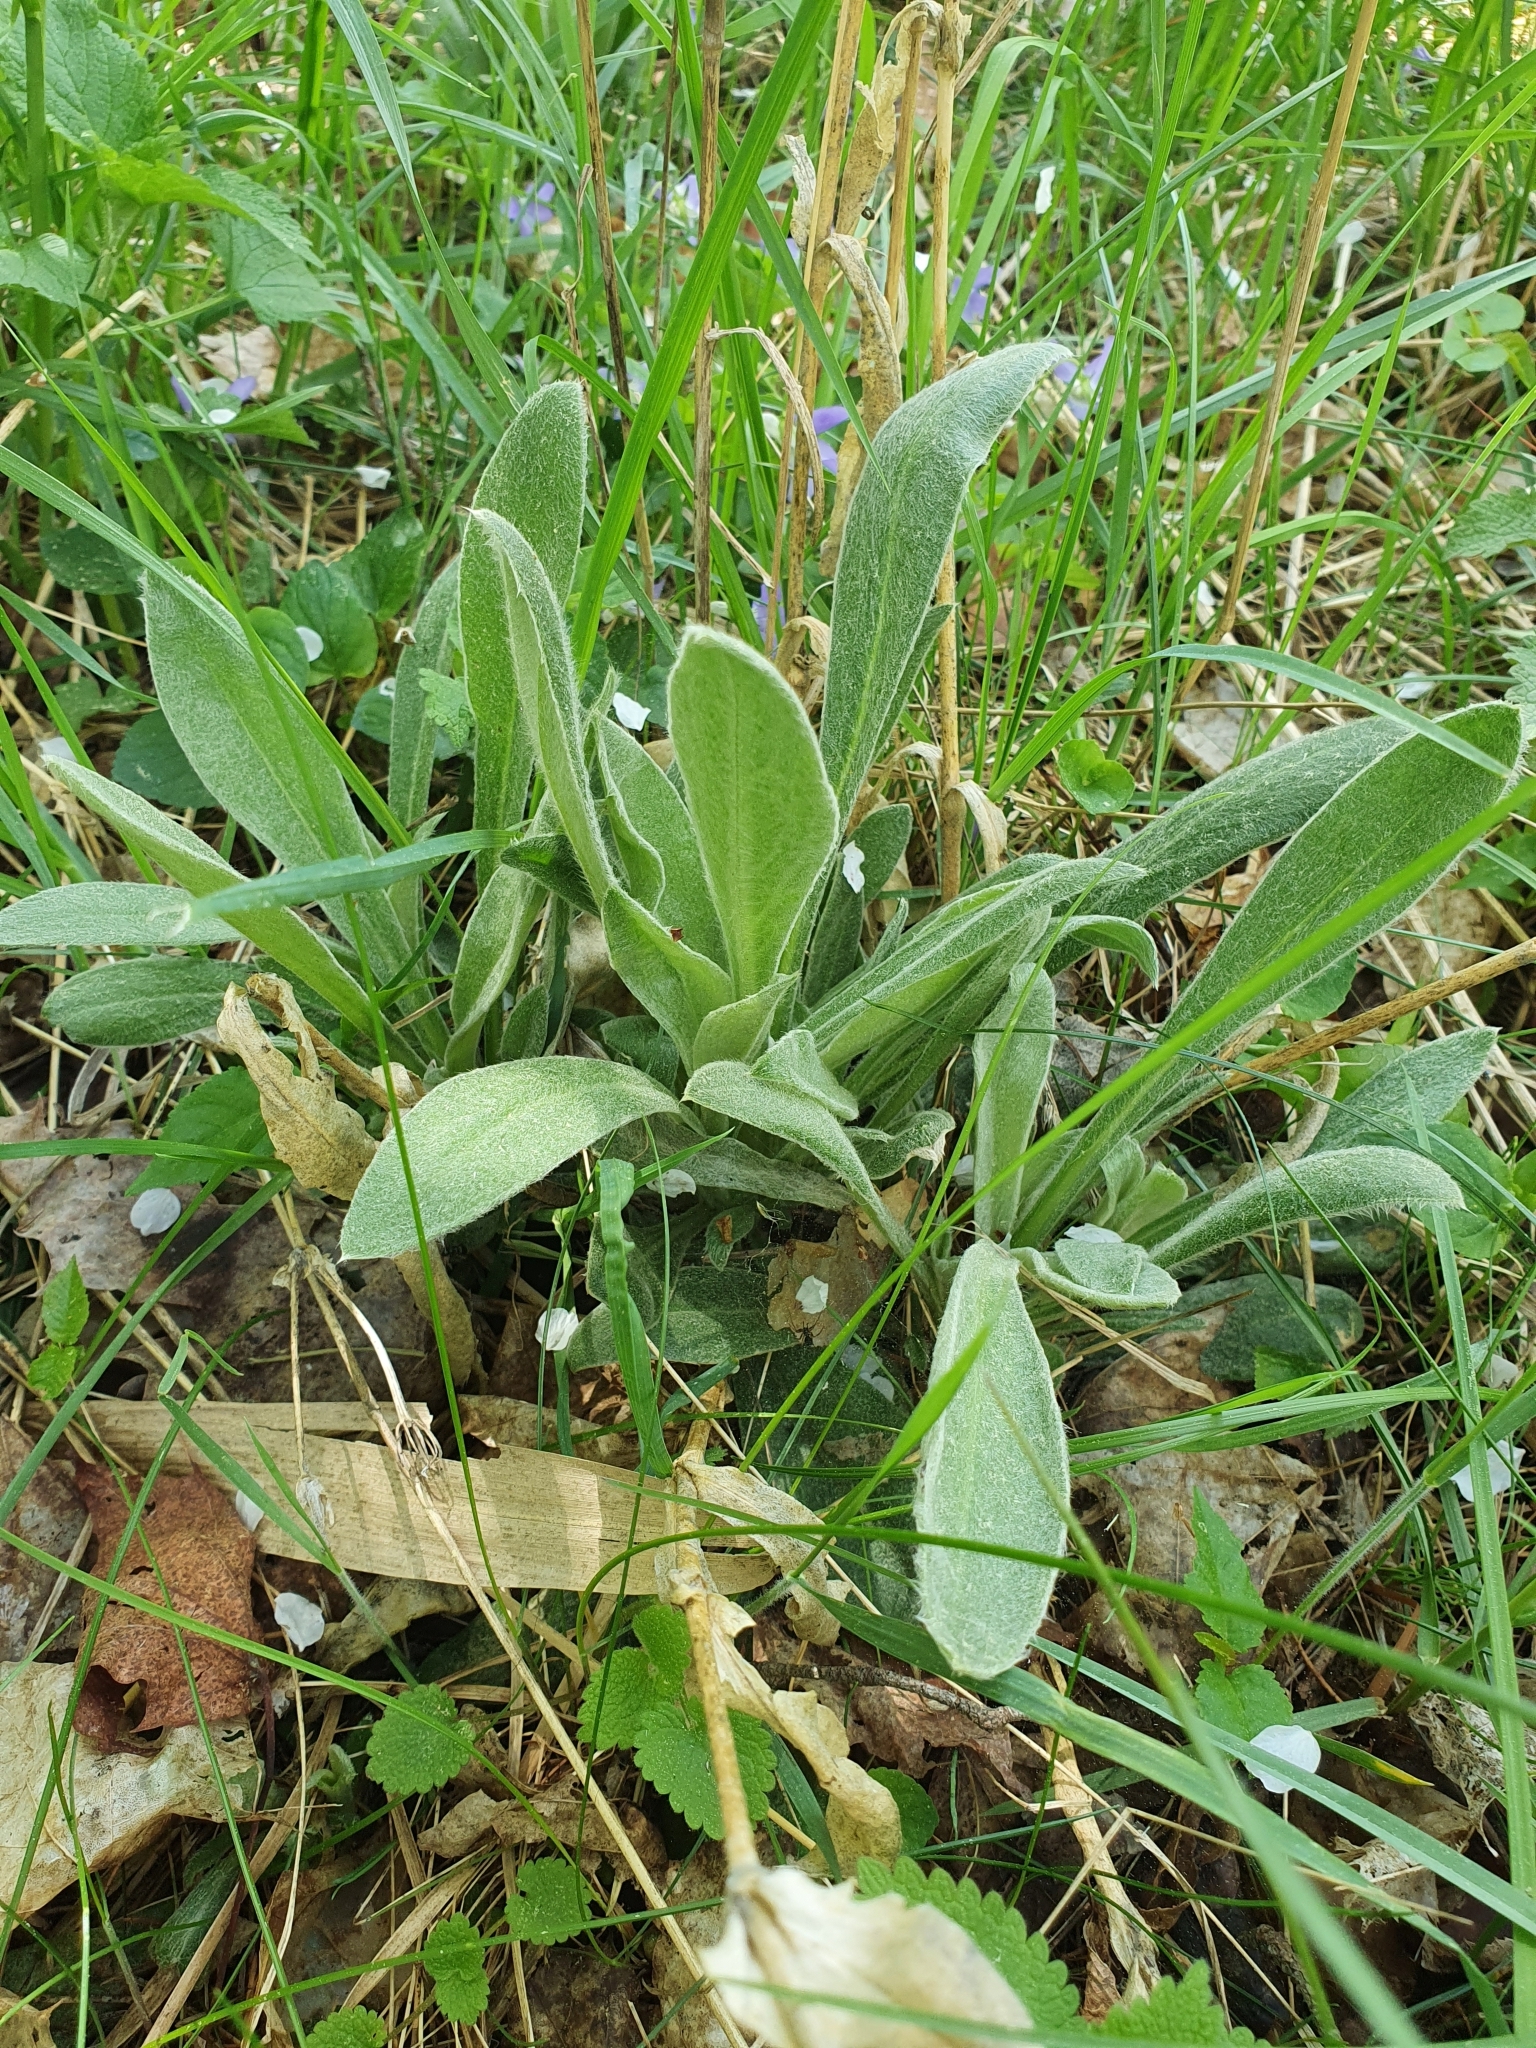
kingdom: Plantae
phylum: Tracheophyta
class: Magnoliopsida
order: Caryophyllales
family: Caryophyllaceae
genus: Silene
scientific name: Silene coronaria
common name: Rose campion
